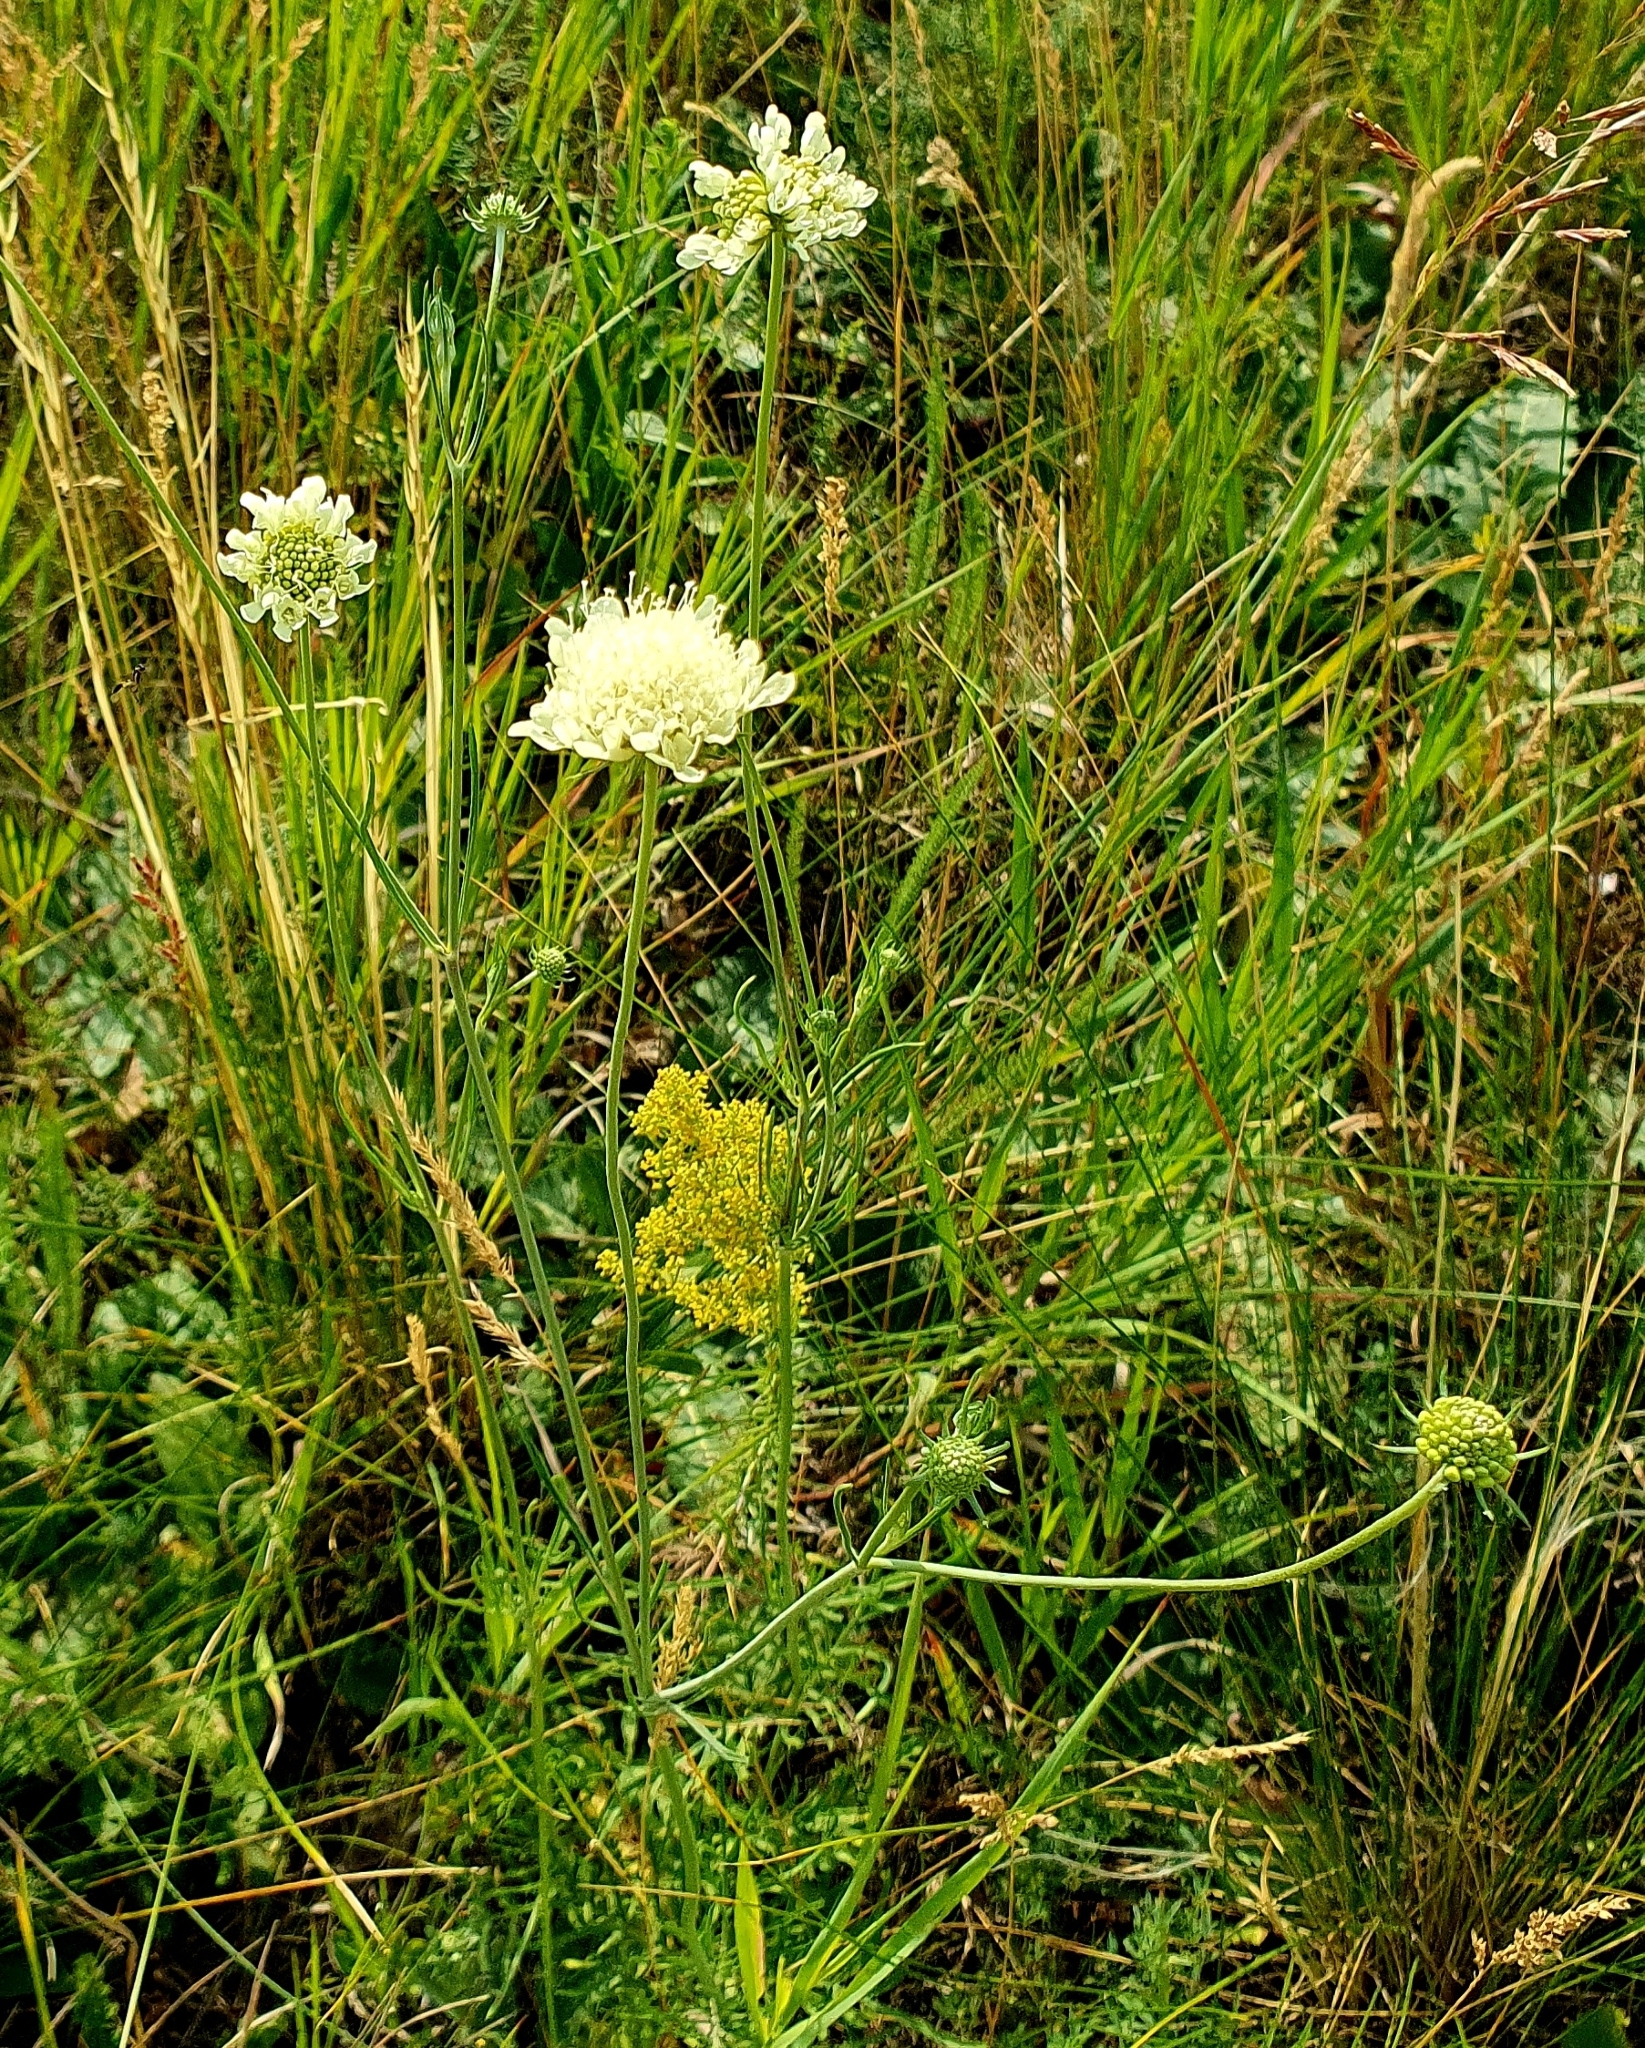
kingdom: Plantae
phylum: Tracheophyta
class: Magnoliopsida
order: Dipsacales
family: Caprifoliaceae
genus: Scabiosa
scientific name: Scabiosa ochroleuca
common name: Cream pincushions
